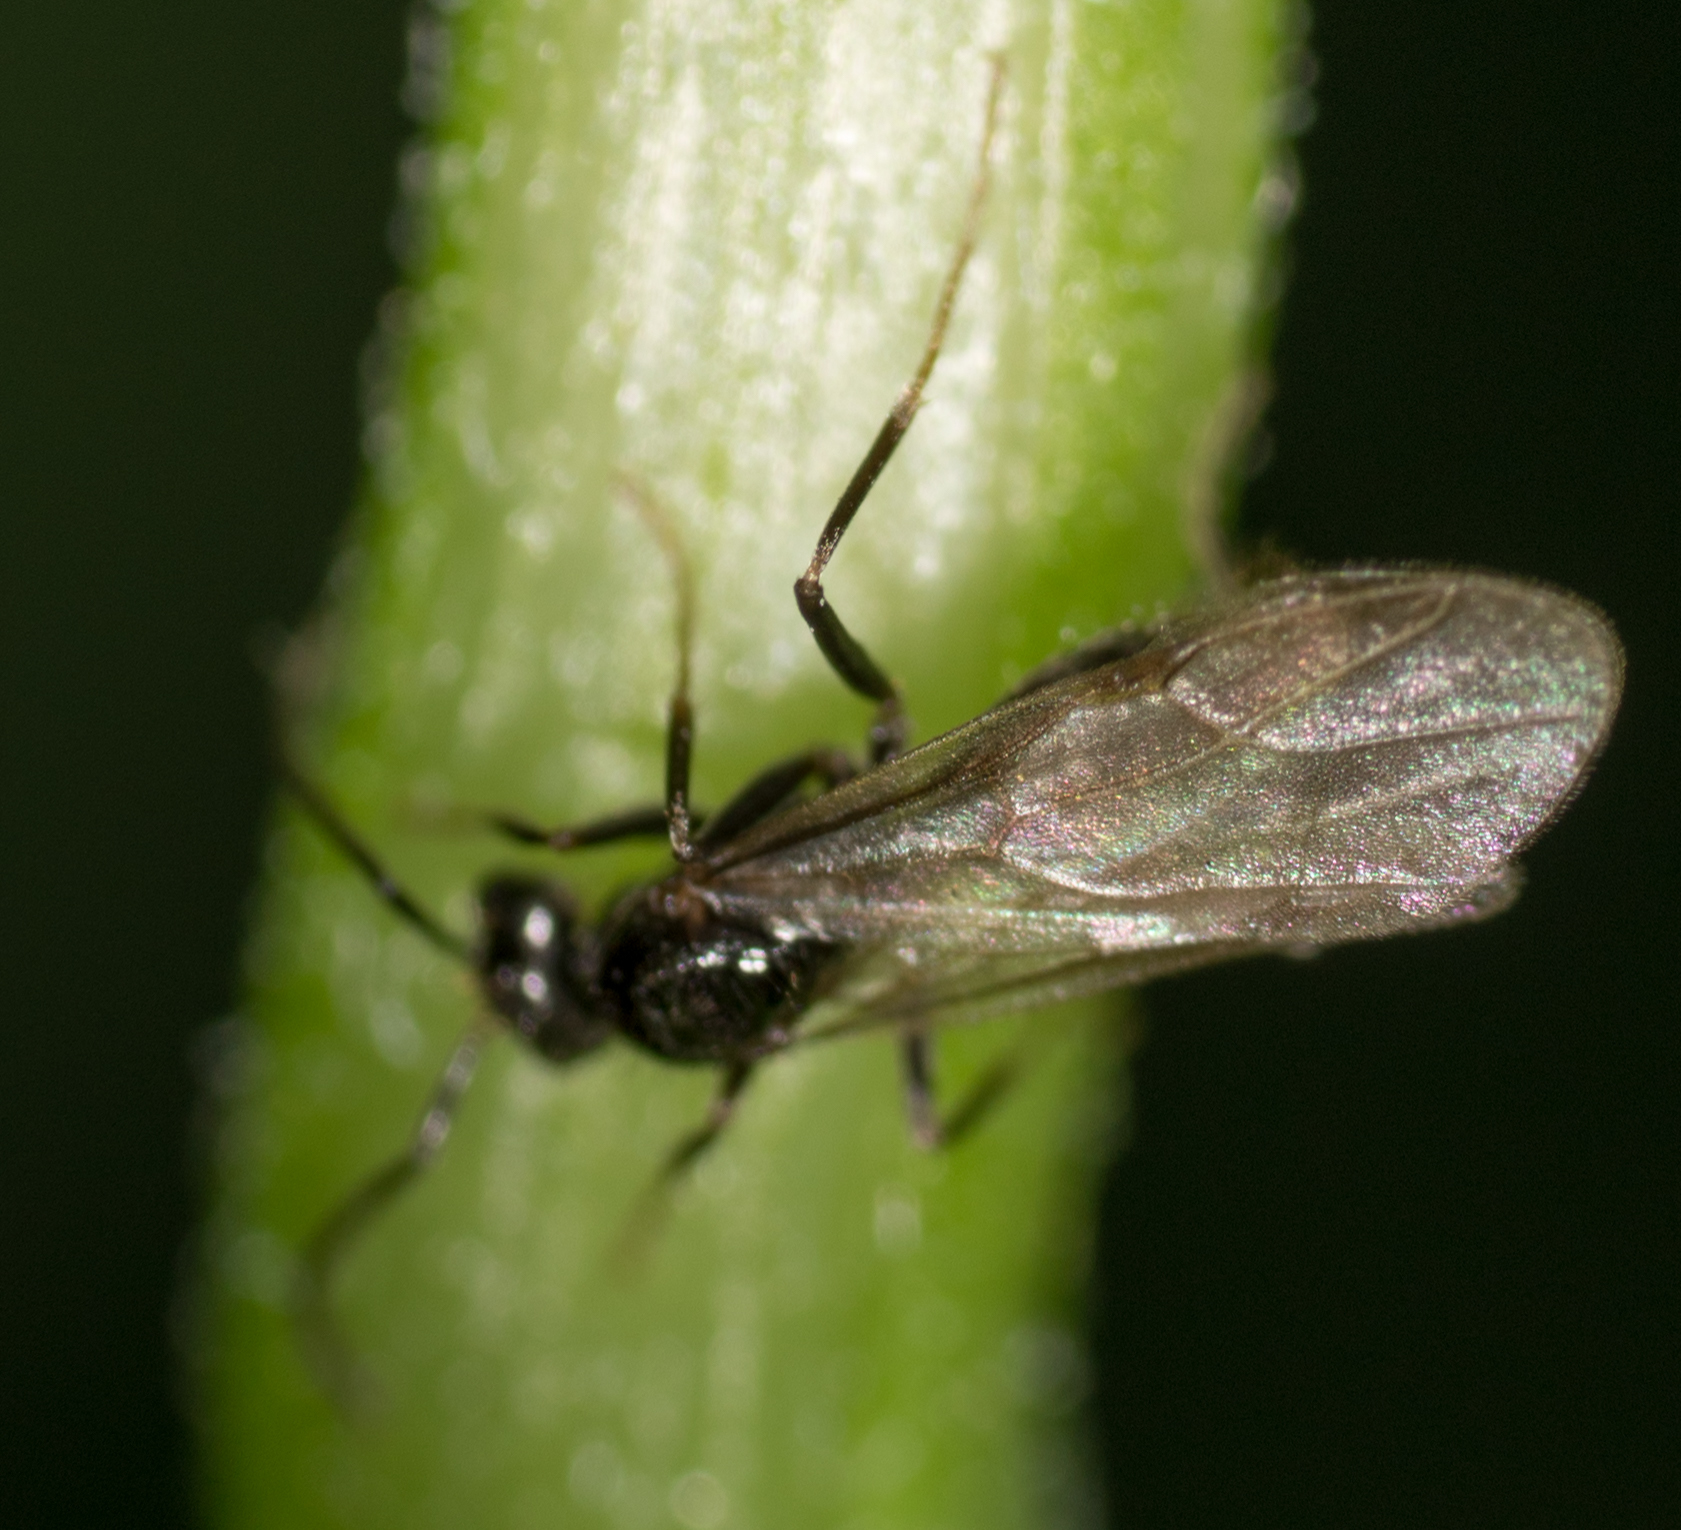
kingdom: Animalia
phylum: Arthropoda
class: Insecta
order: Hymenoptera
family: Formicidae
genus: Prenolepis
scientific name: Prenolepis imparis
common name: Small honey ant
